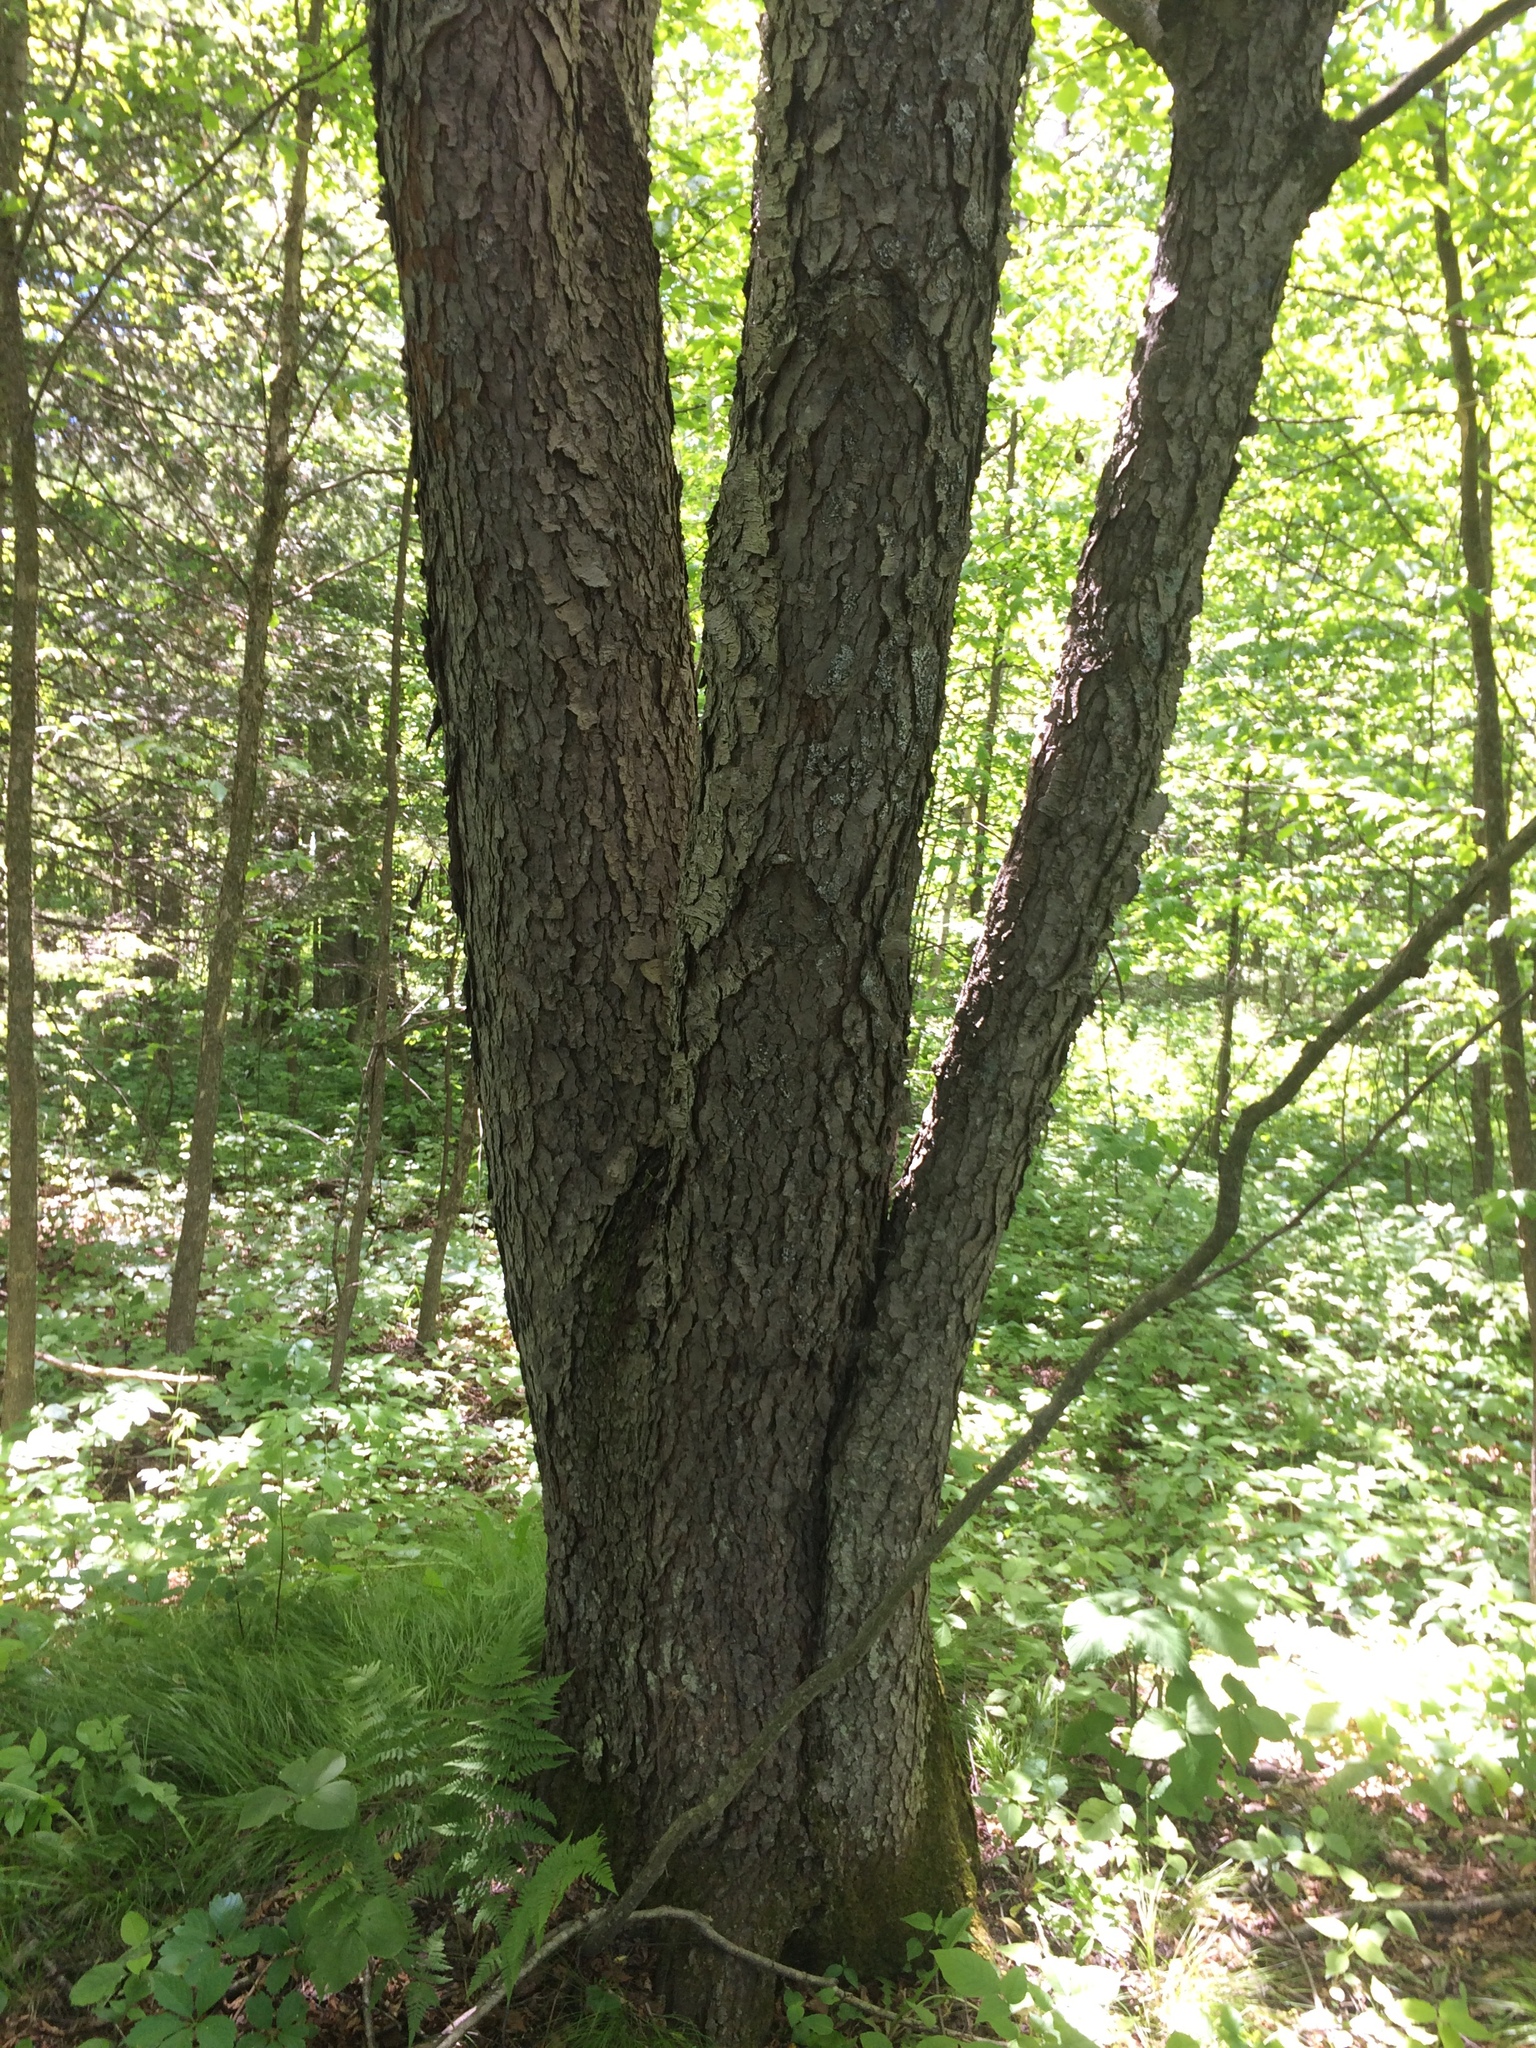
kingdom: Plantae
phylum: Tracheophyta
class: Magnoliopsida
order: Rosales
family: Rosaceae
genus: Prunus
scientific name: Prunus serotina
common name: Black cherry
